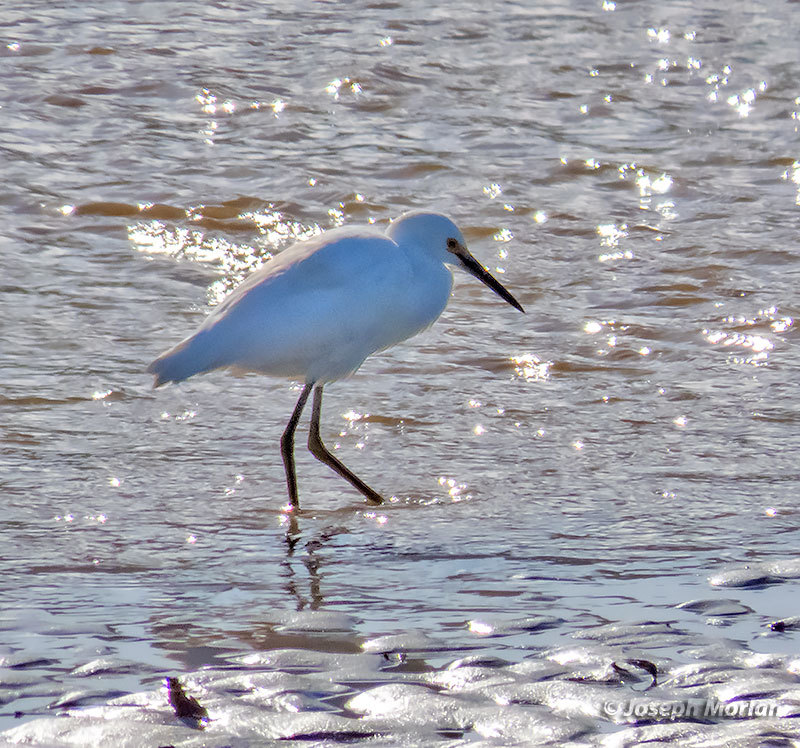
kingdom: Animalia
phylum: Chordata
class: Aves
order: Pelecaniformes
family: Ardeidae
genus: Egretta
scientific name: Egretta thula
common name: Snowy egret
